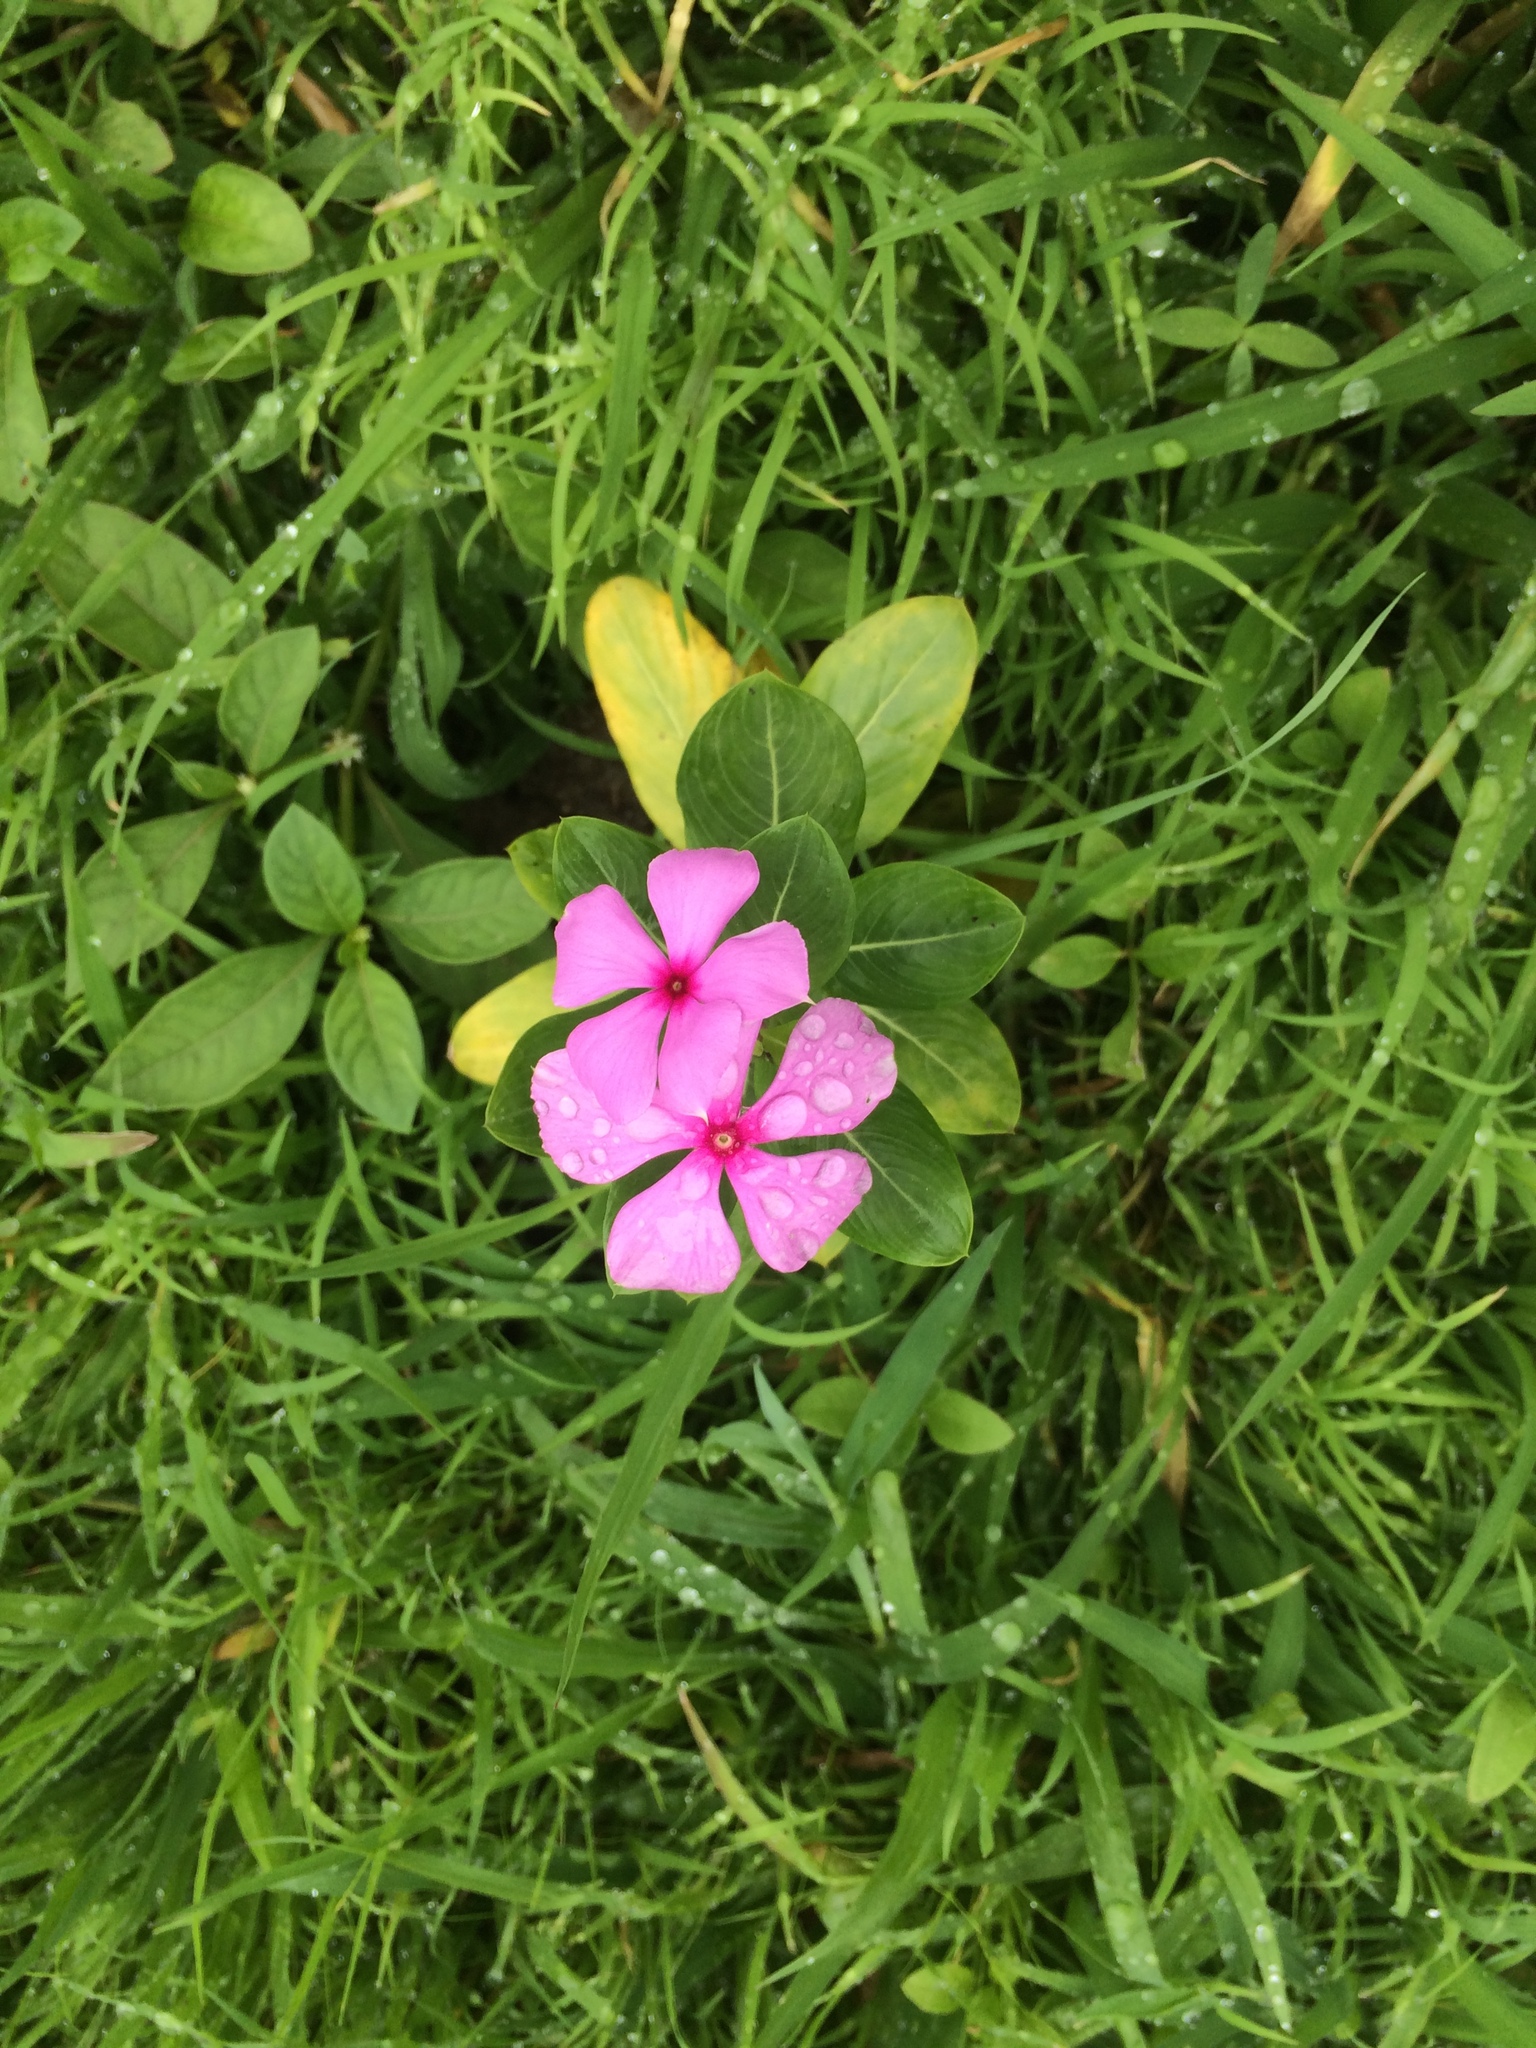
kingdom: Plantae
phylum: Tracheophyta
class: Magnoliopsida
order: Gentianales
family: Apocynaceae
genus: Catharanthus
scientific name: Catharanthus roseus
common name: Madagascar periwinkle
